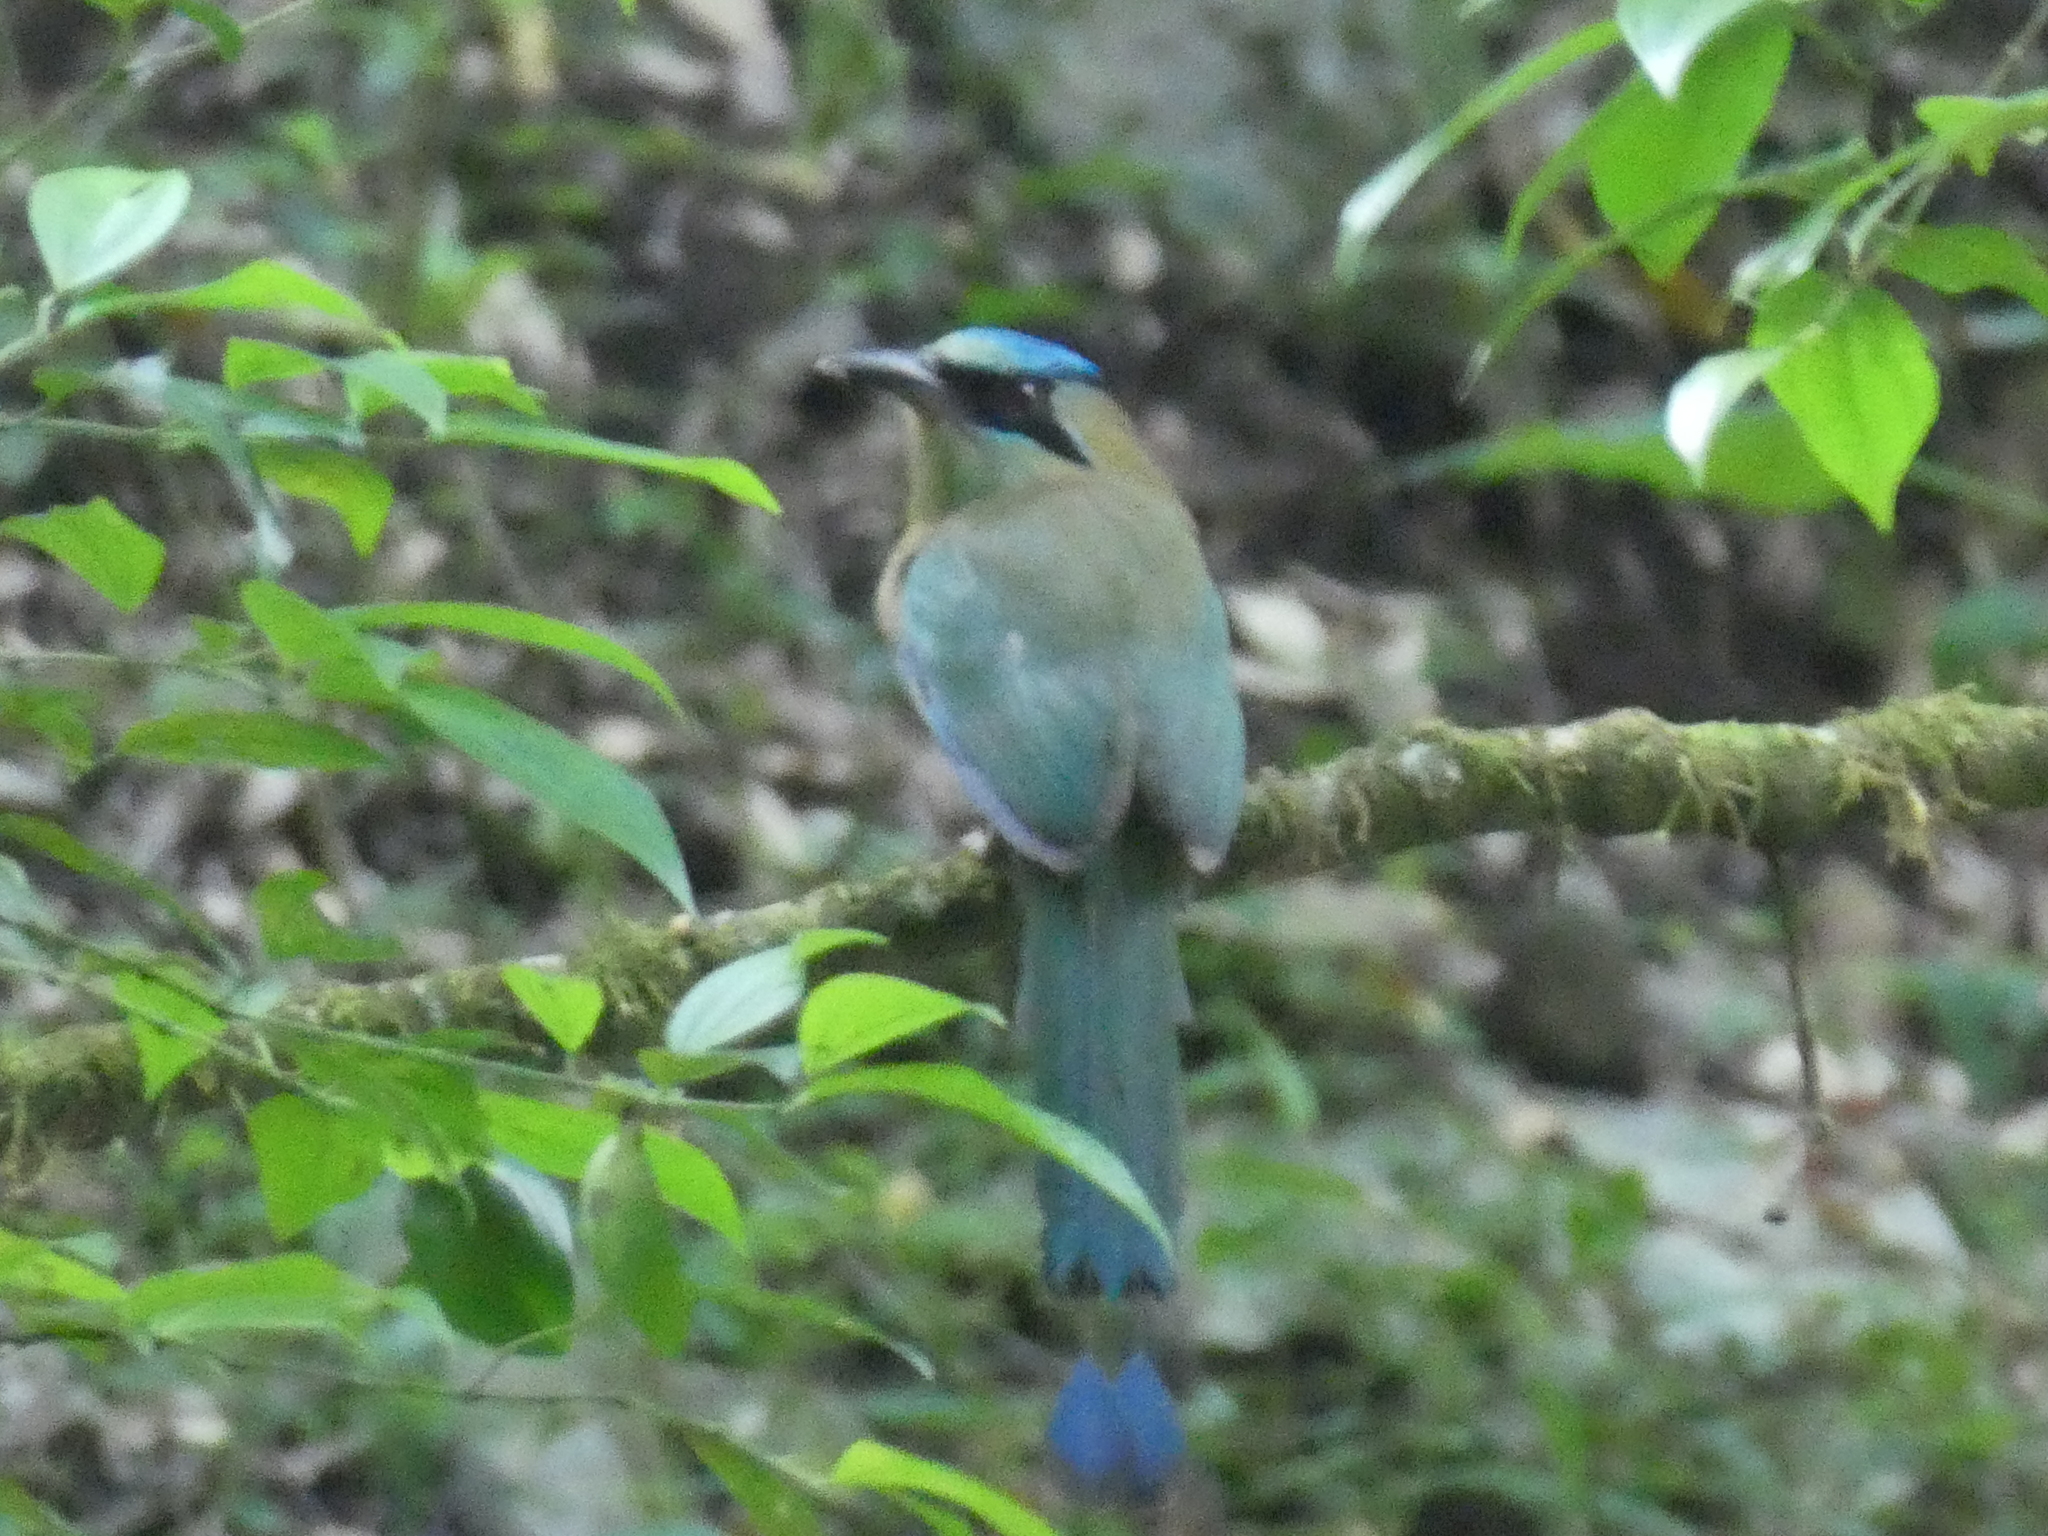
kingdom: Animalia
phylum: Chordata
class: Aves
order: Coraciiformes
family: Momotidae
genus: Momotus
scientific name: Momotus coeruliceps
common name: Blue-capped motmot
